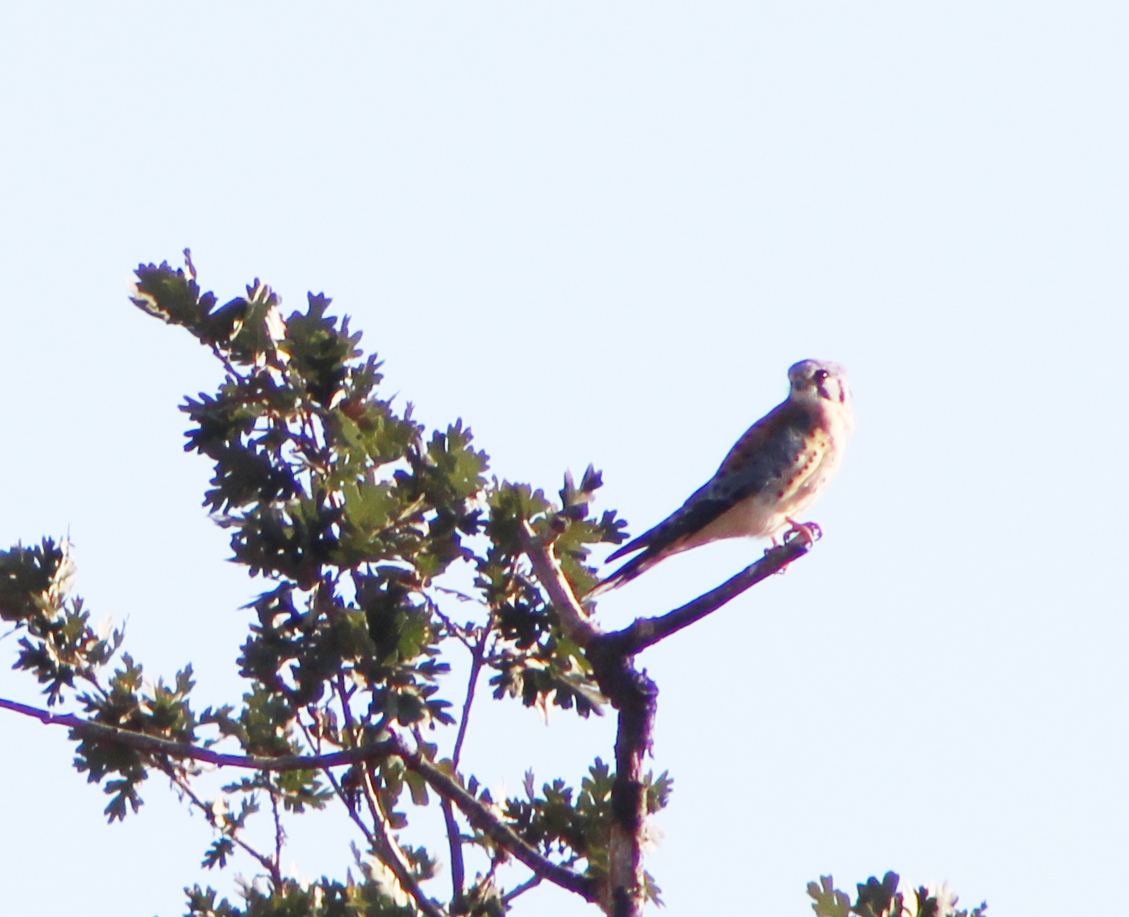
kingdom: Animalia
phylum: Chordata
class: Aves
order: Falconiformes
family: Falconidae
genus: Falco
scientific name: Falco sparverius
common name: American kestrel
